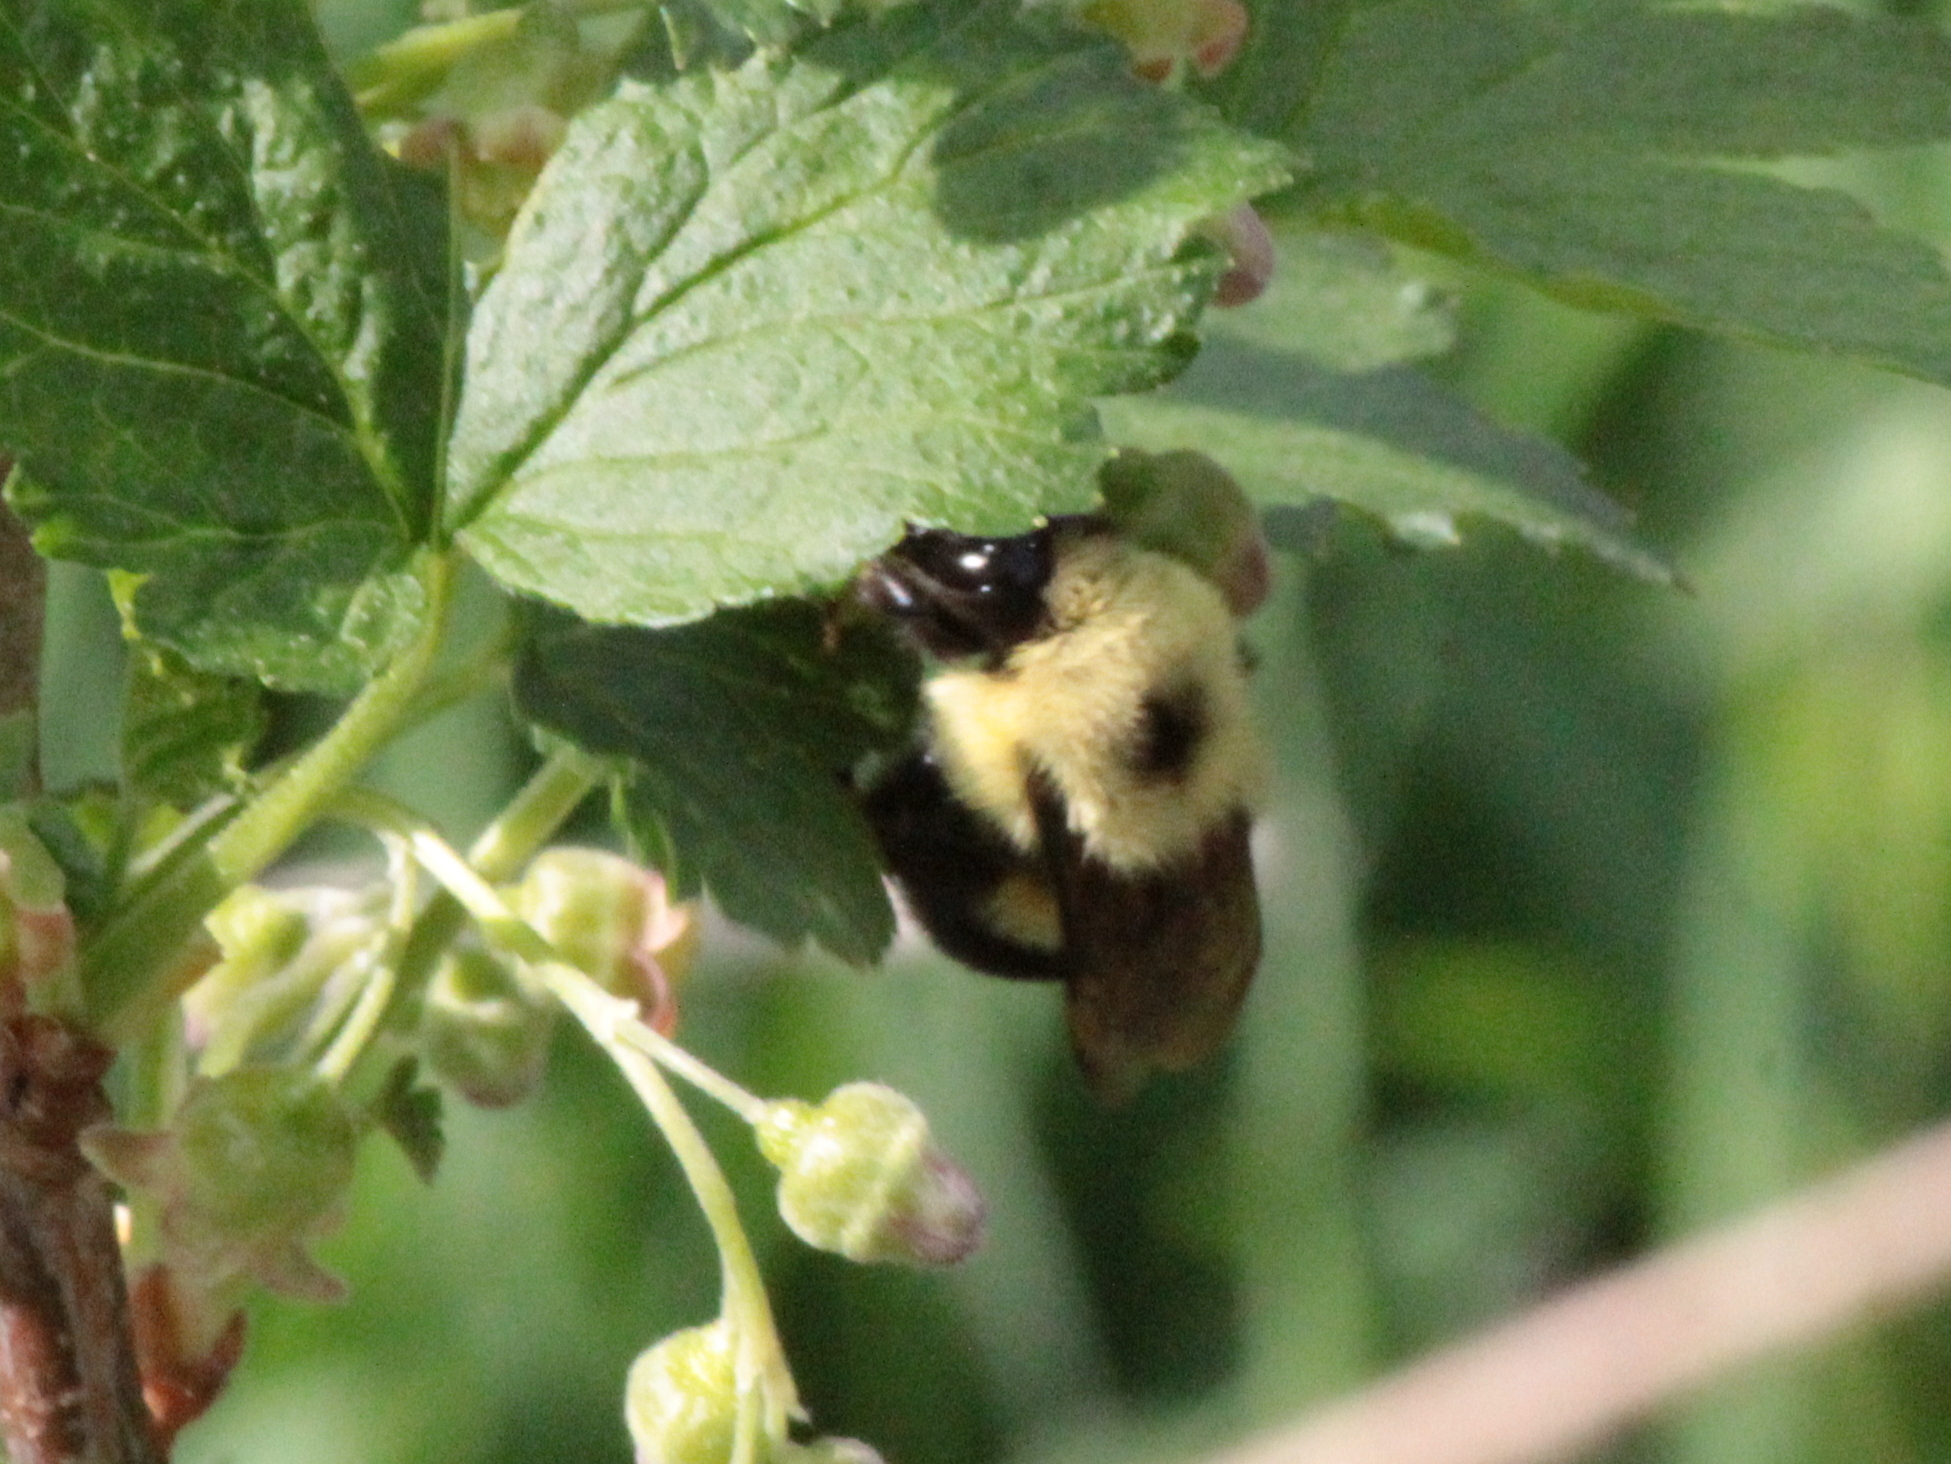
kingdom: Animalia
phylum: Arthropoda
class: Insecta
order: Hymenoptera
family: Apidae
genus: Bombus
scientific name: Bombus bimaculatus
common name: Two-spotted bumble bee
